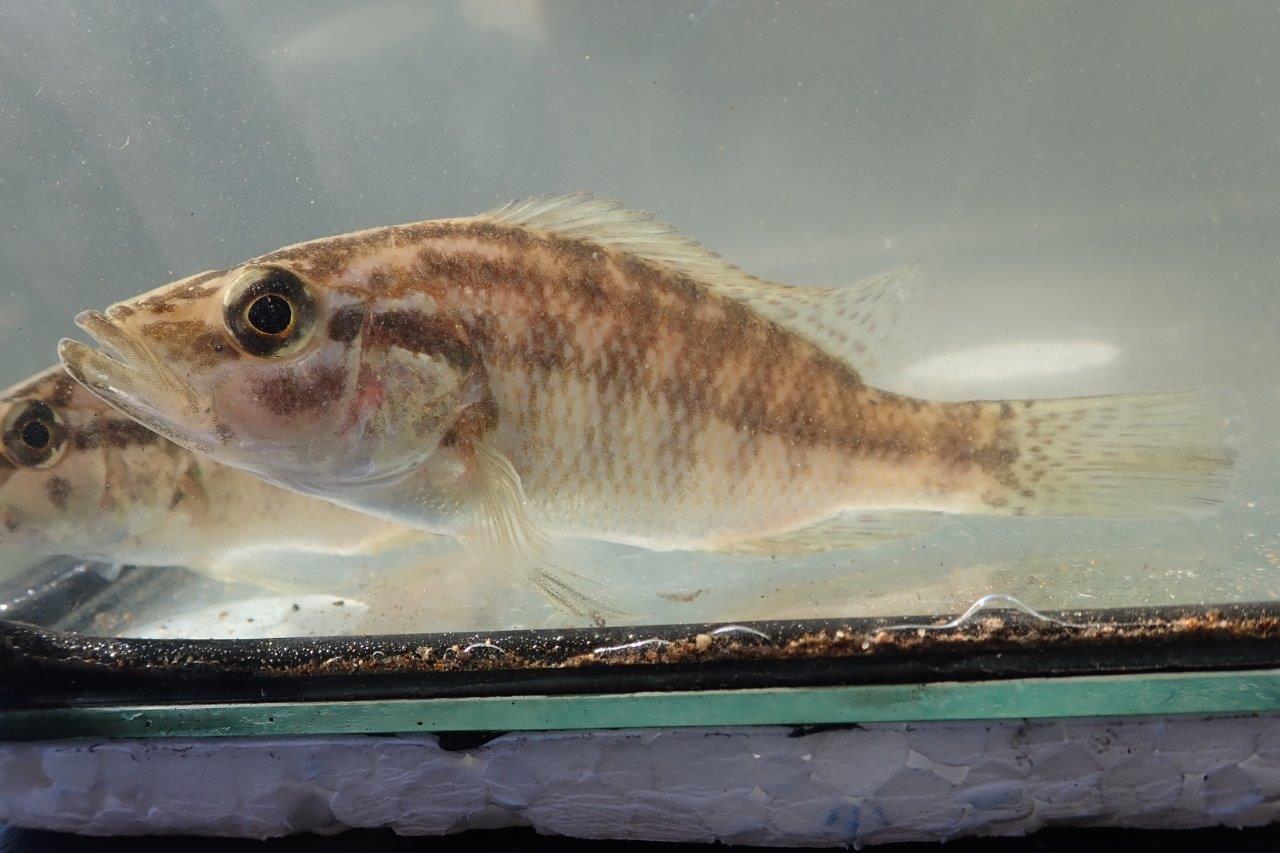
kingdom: Animalia
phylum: Chordata
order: Perciformes
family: Cichlidae
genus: Serranochromis
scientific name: Serranochromis meridianus
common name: Lowveld largemouth
